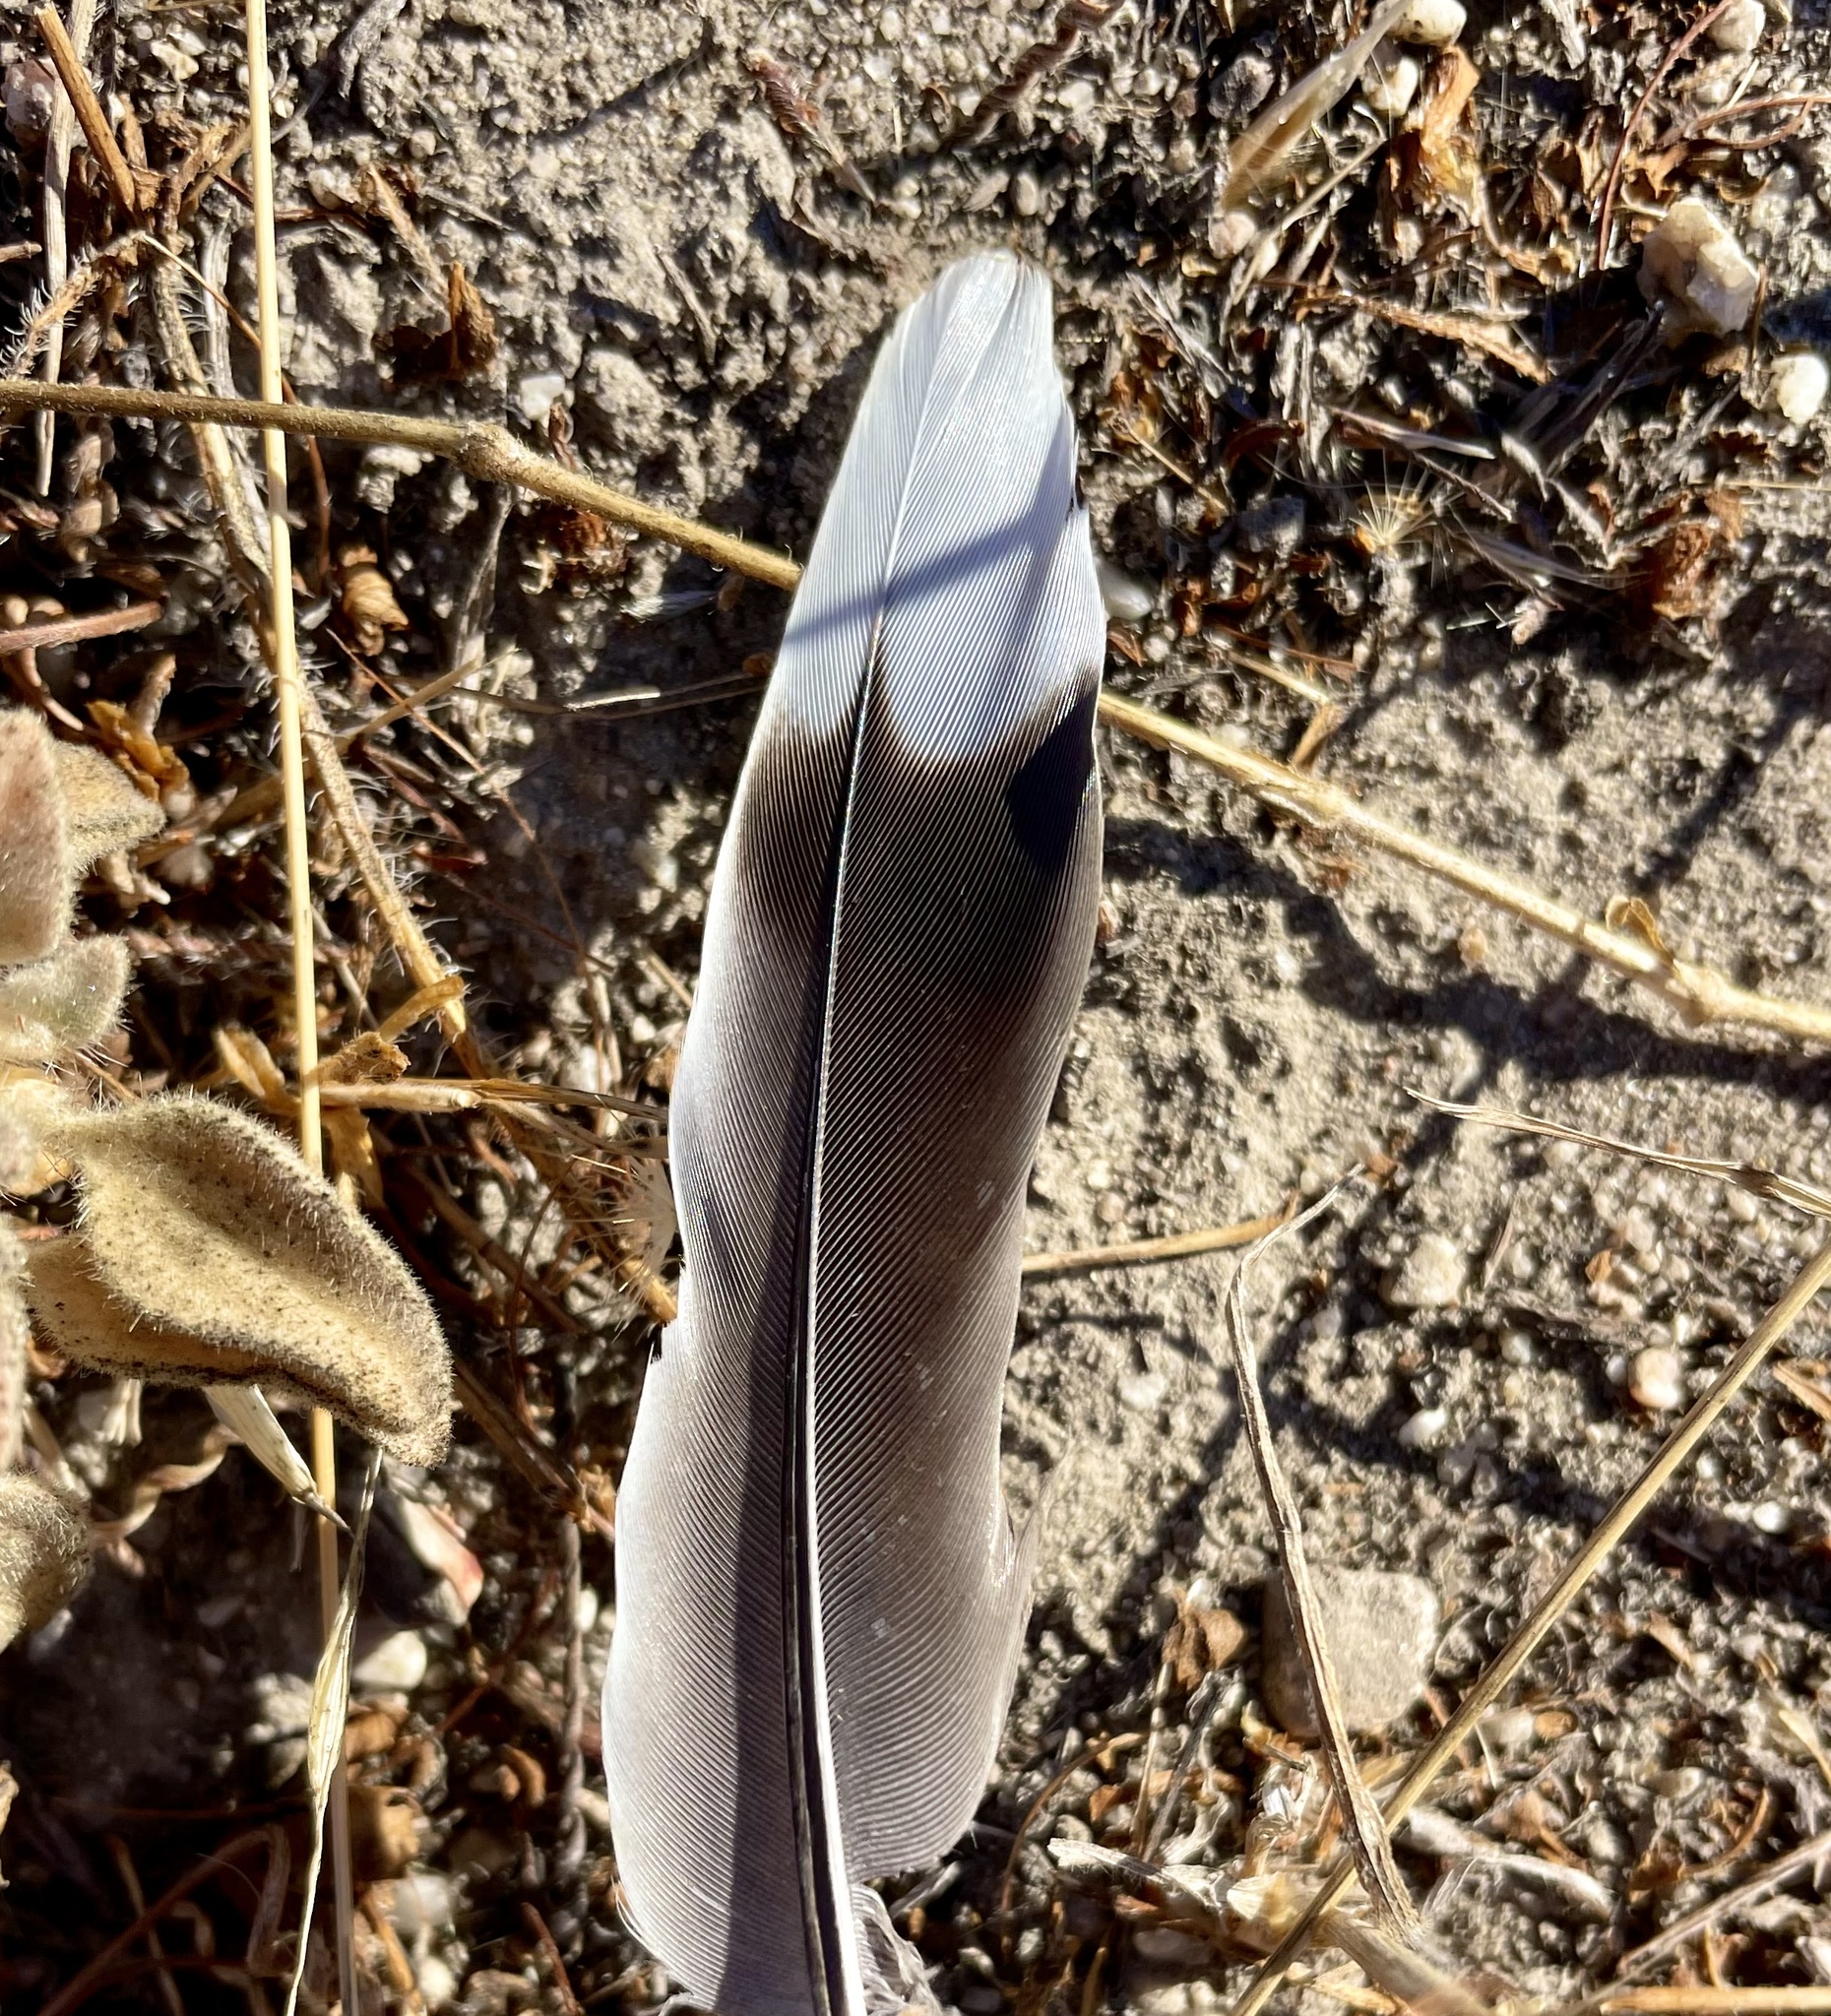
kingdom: Animalia
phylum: Chordata
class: Aves
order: Columbiformes
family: Columbidae
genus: Zenaida
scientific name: Zenaida macroura
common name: Mourning dove
